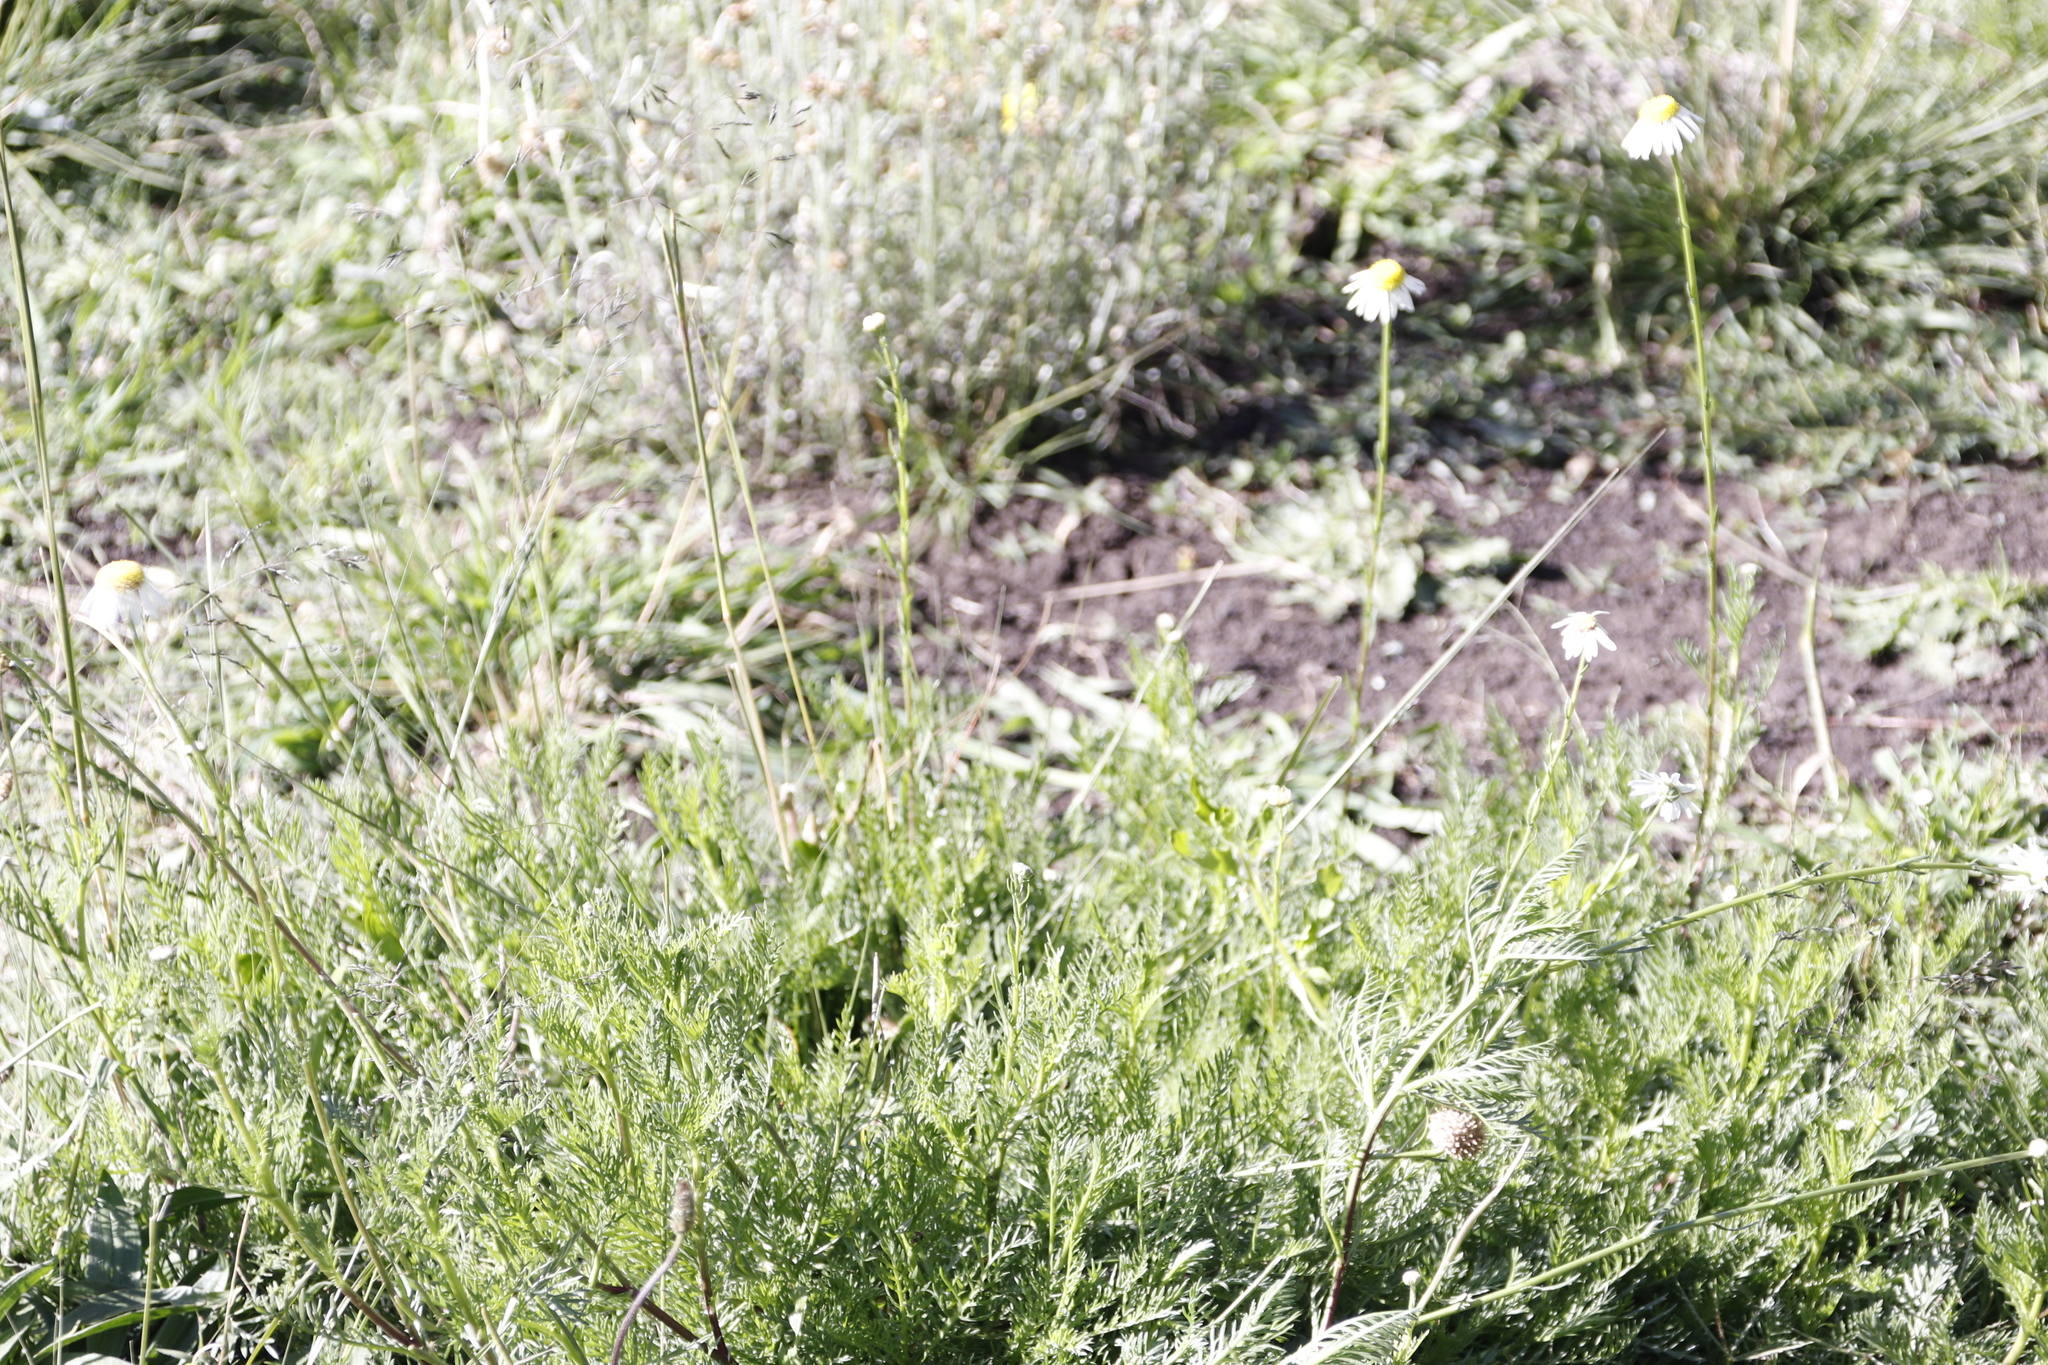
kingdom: Plantae
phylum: Tracheophyta
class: Magnoliopsida
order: Asterales
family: Asteraceae
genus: Lasiospermum
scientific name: Lasiospermum bipinnatum
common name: Cocoonhead
